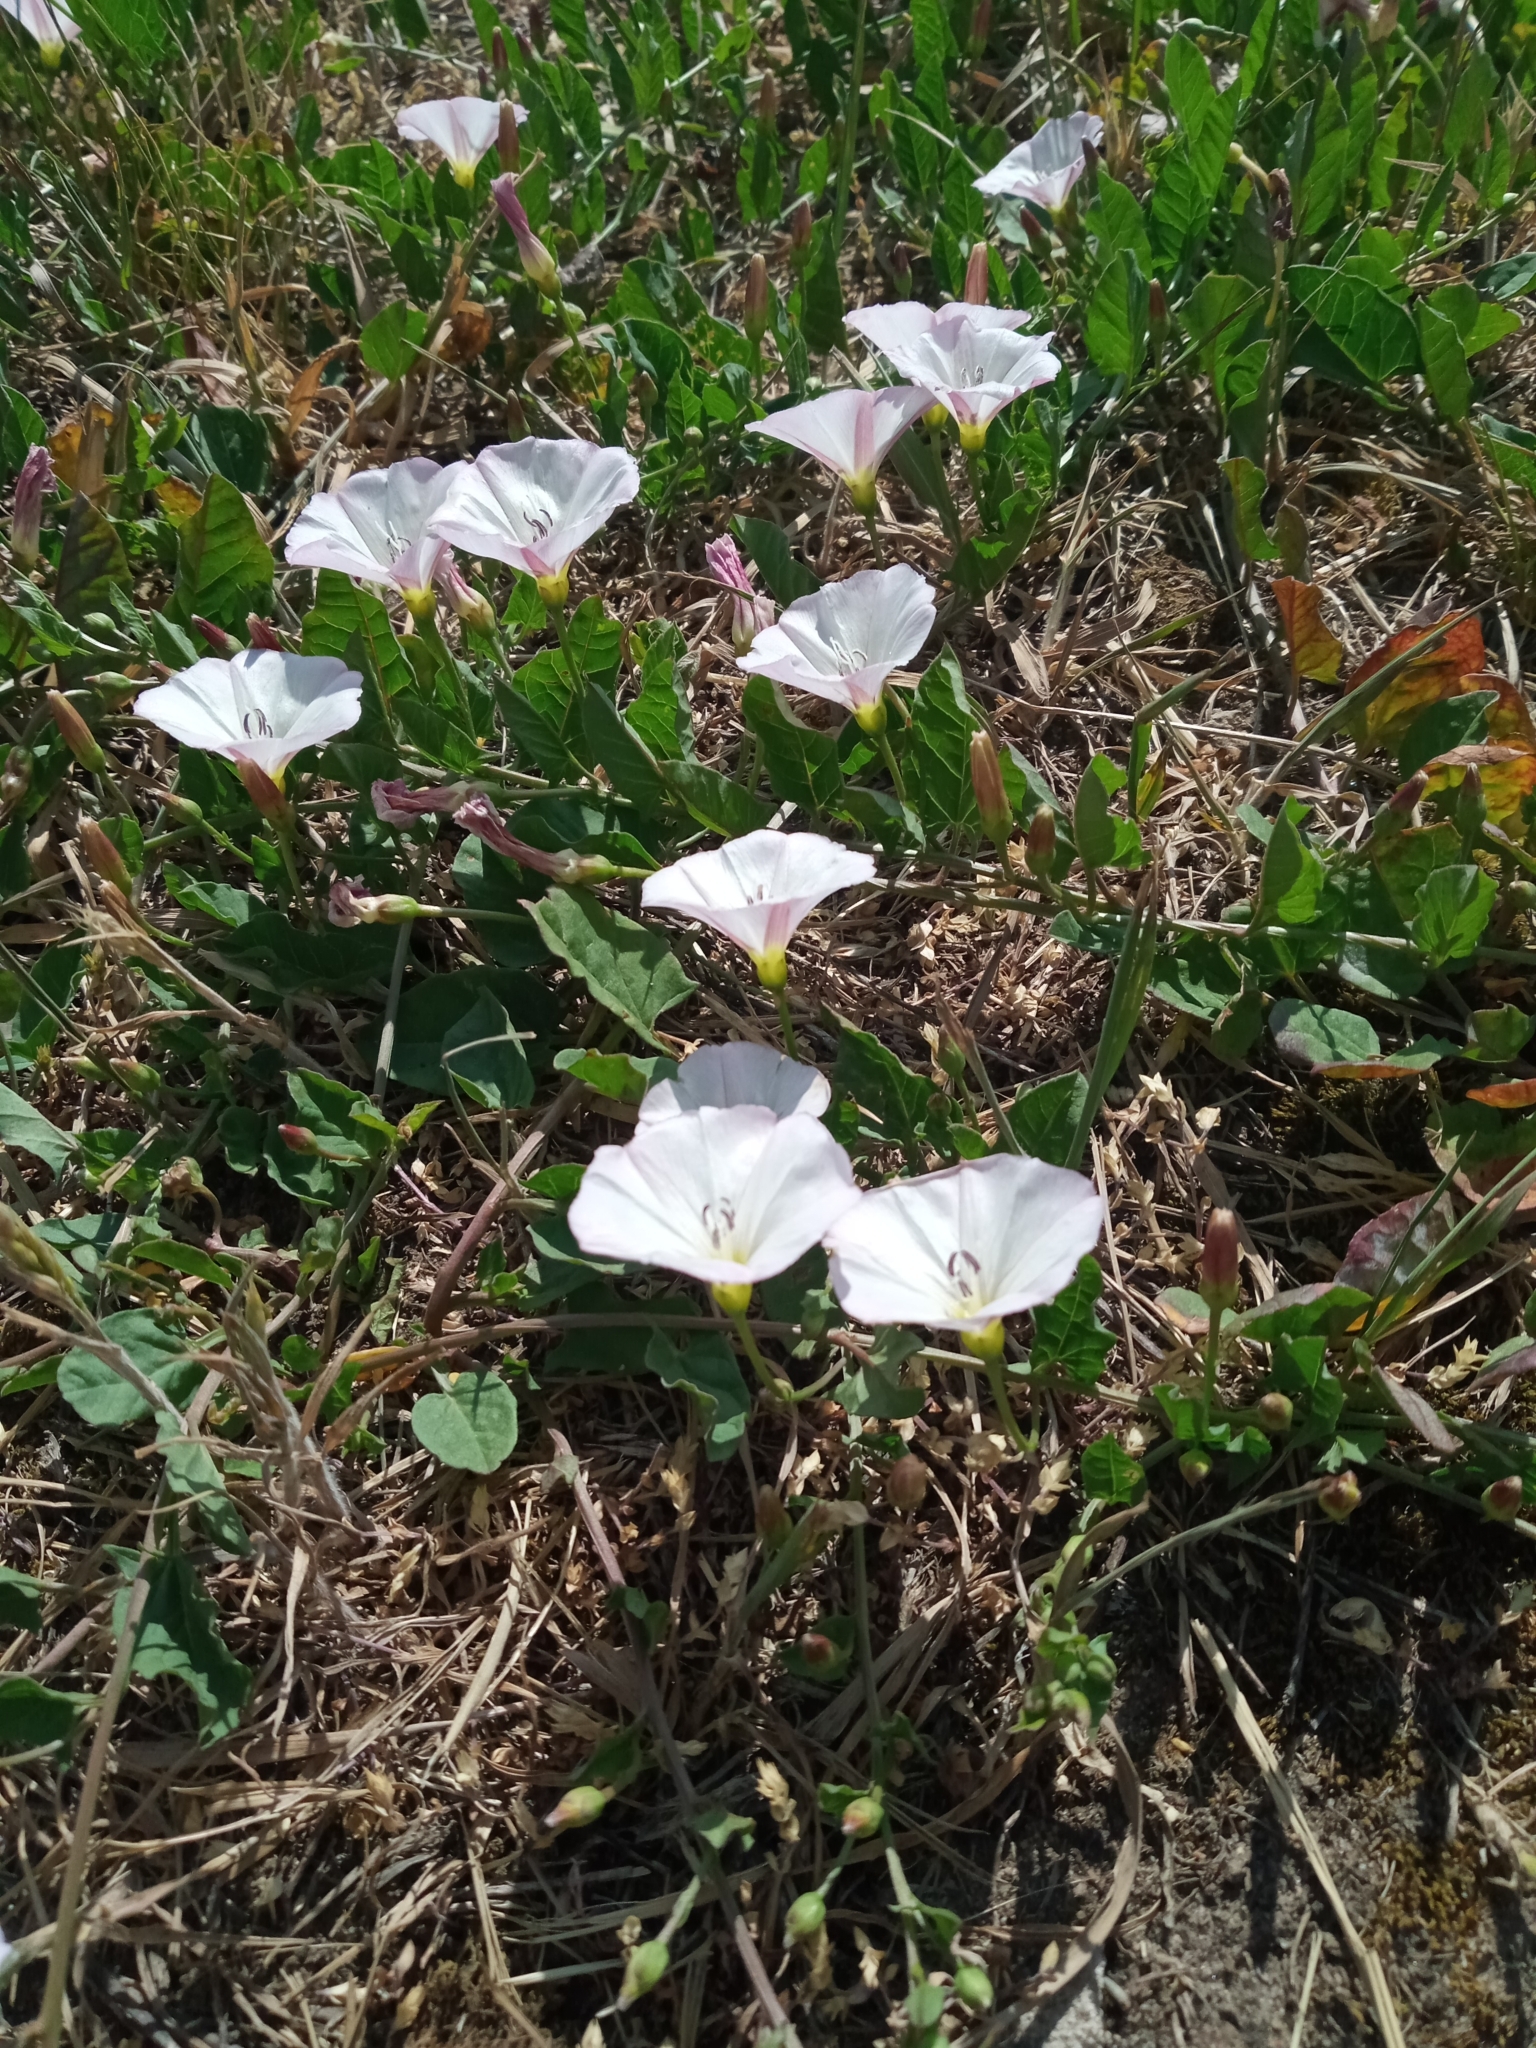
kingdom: Plantae
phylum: Tracheophyta
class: Magnoliopsida
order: Solanales
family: Convolvulaceae
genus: Convolvulus
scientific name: Convolvulus arvensis
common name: Field bindweed
